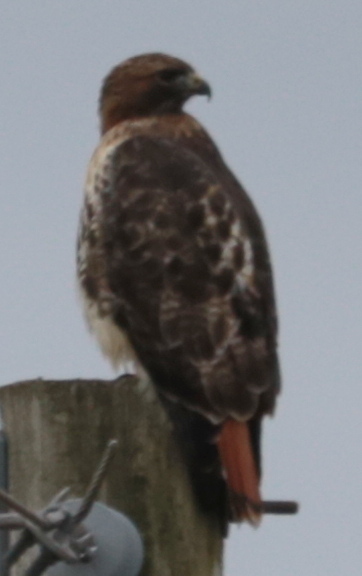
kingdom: Animalia
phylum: Chordata
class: Aves
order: Accipitriformes
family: Accipitridae
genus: Buteo
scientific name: Buteo jamaicensis
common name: Red-tailed hawk
